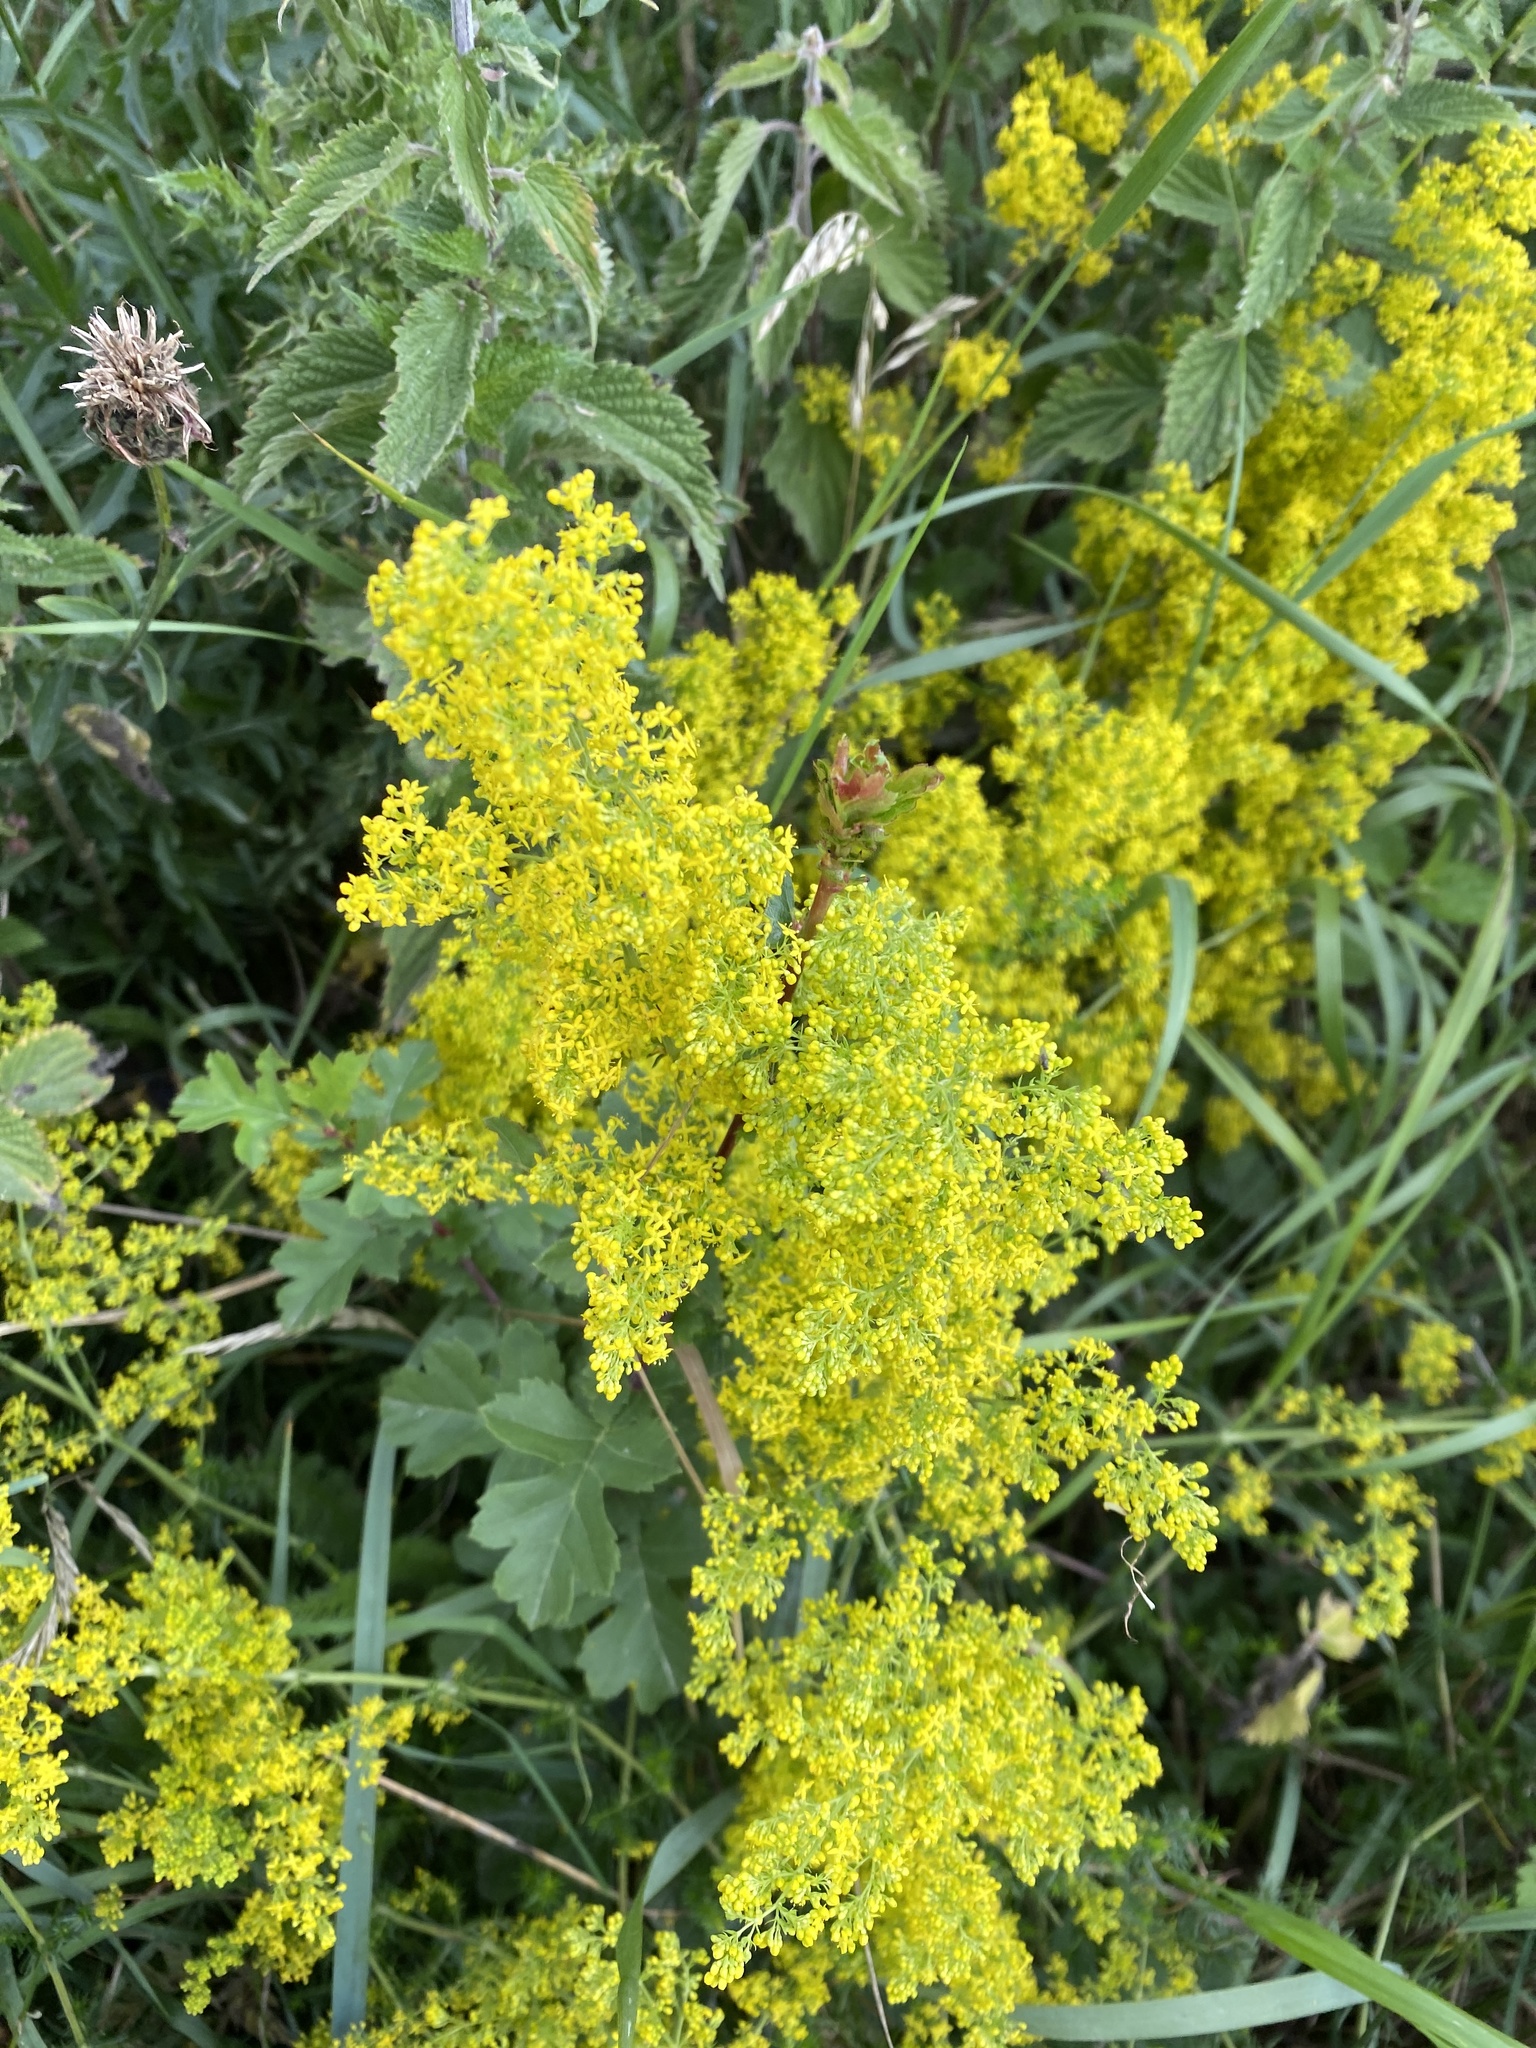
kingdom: Plantae
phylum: Tracheophyta
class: Magnoliopsida
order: Gentianales
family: Rubiaceae
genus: Galium
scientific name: Galium verum
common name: Lady's bedstraw
